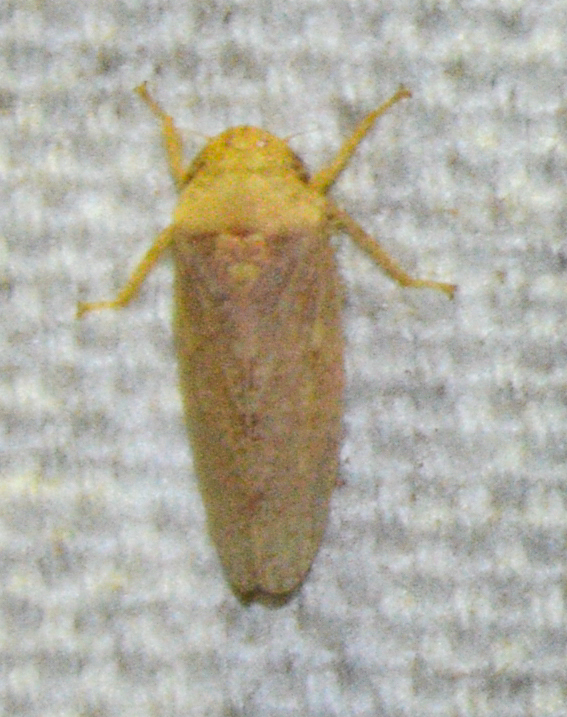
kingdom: Animalia
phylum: Arthropoda
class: Insecta
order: Hemiptera
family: Cicadellidae
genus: Curtara
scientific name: Curtara insularis
